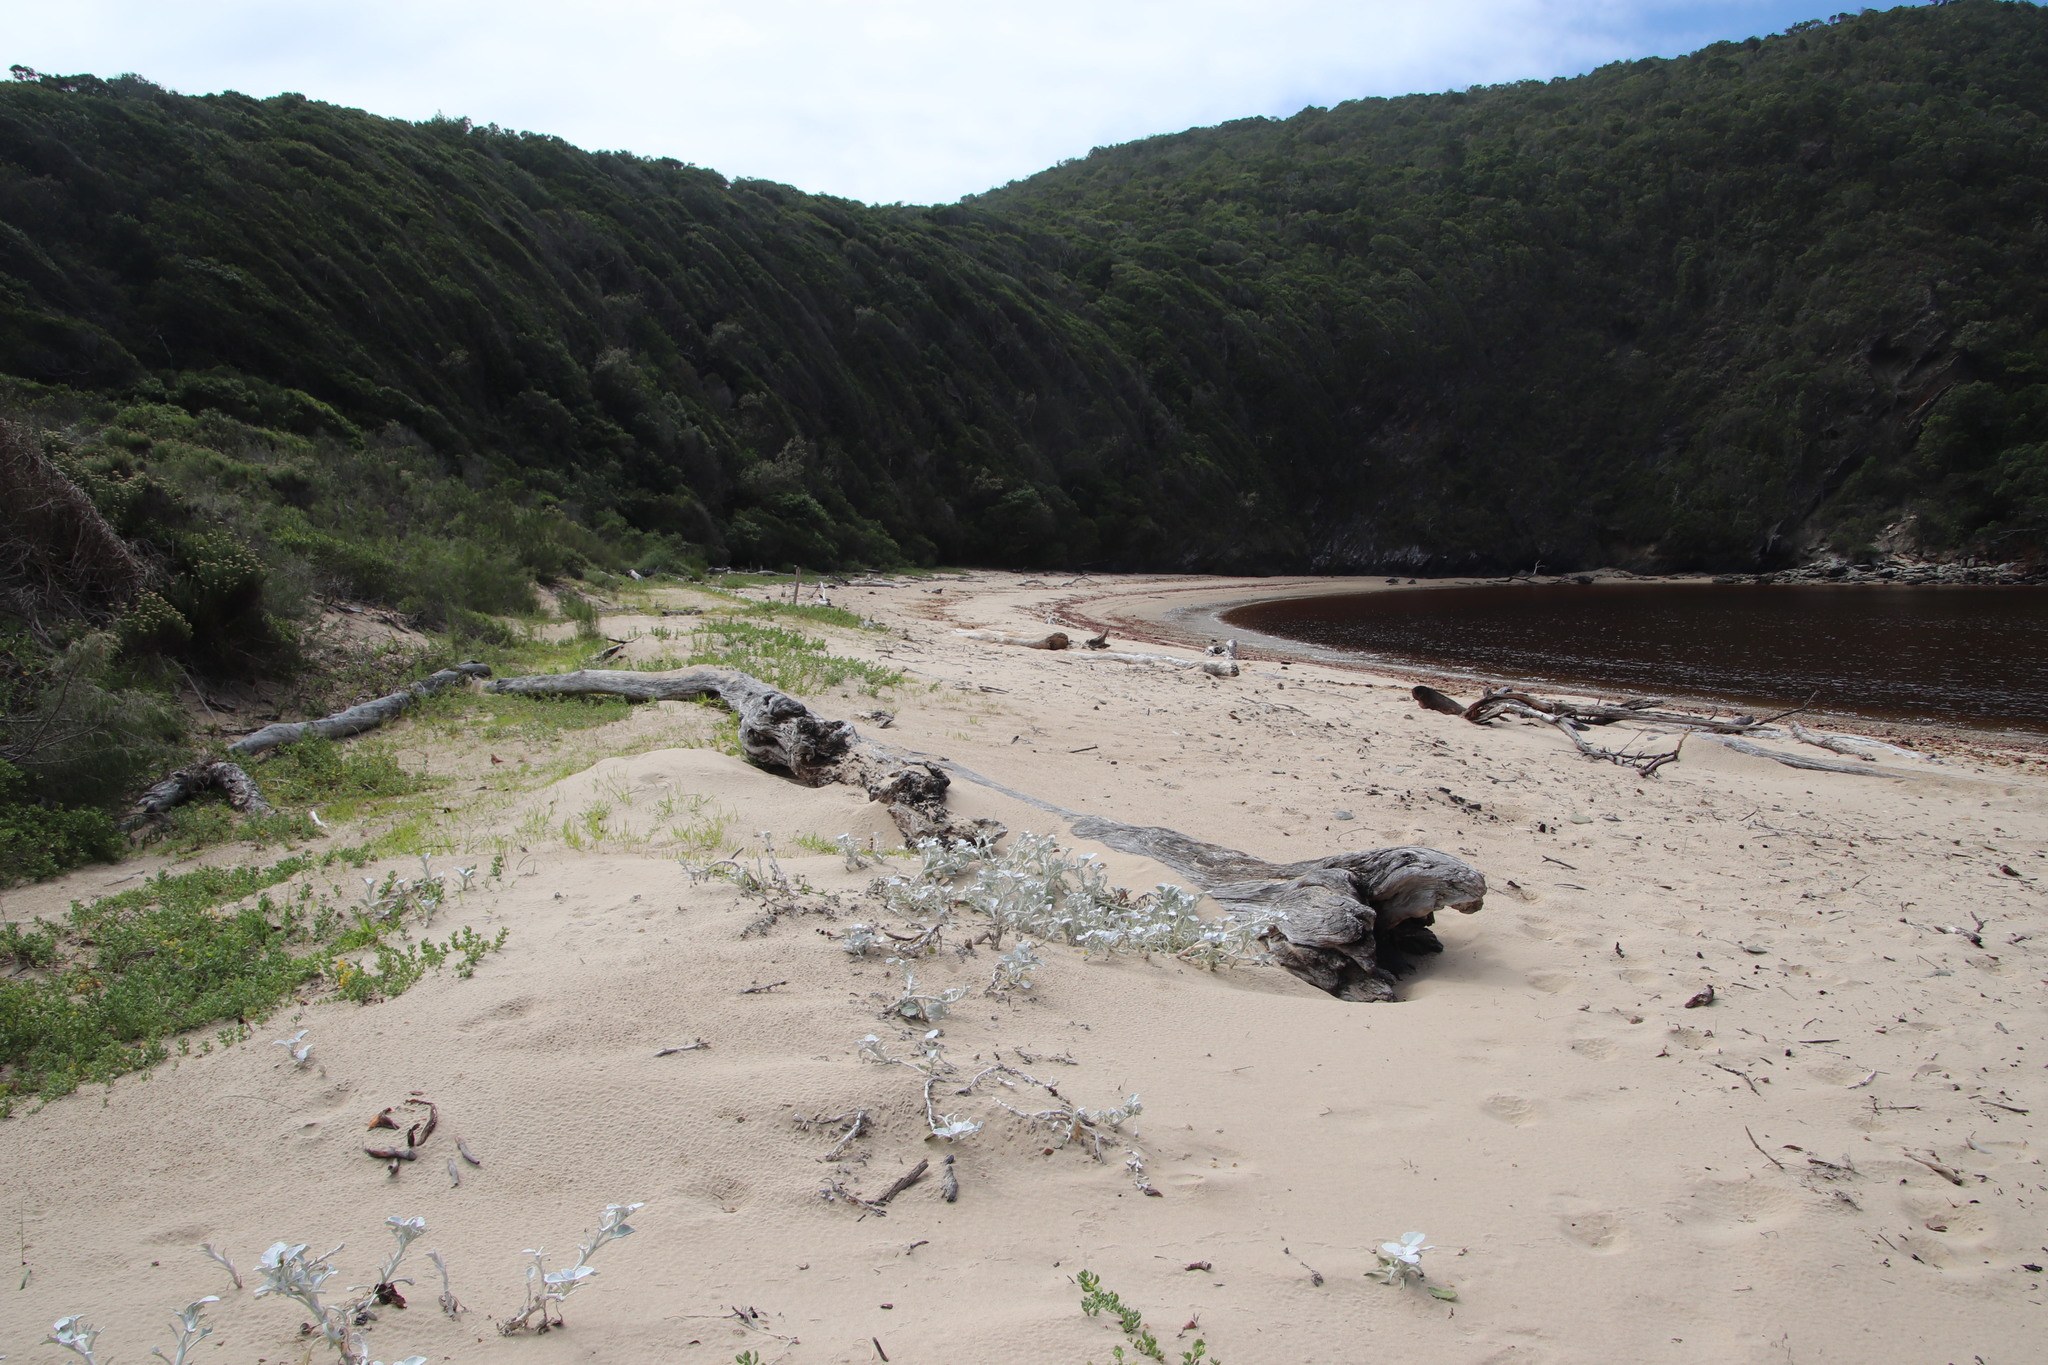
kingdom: Plantae
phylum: Tracheophyta
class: Magnoliopsida
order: Asterales
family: Asteraceae
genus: Arctotheca
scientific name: Arctotheca populifolia
